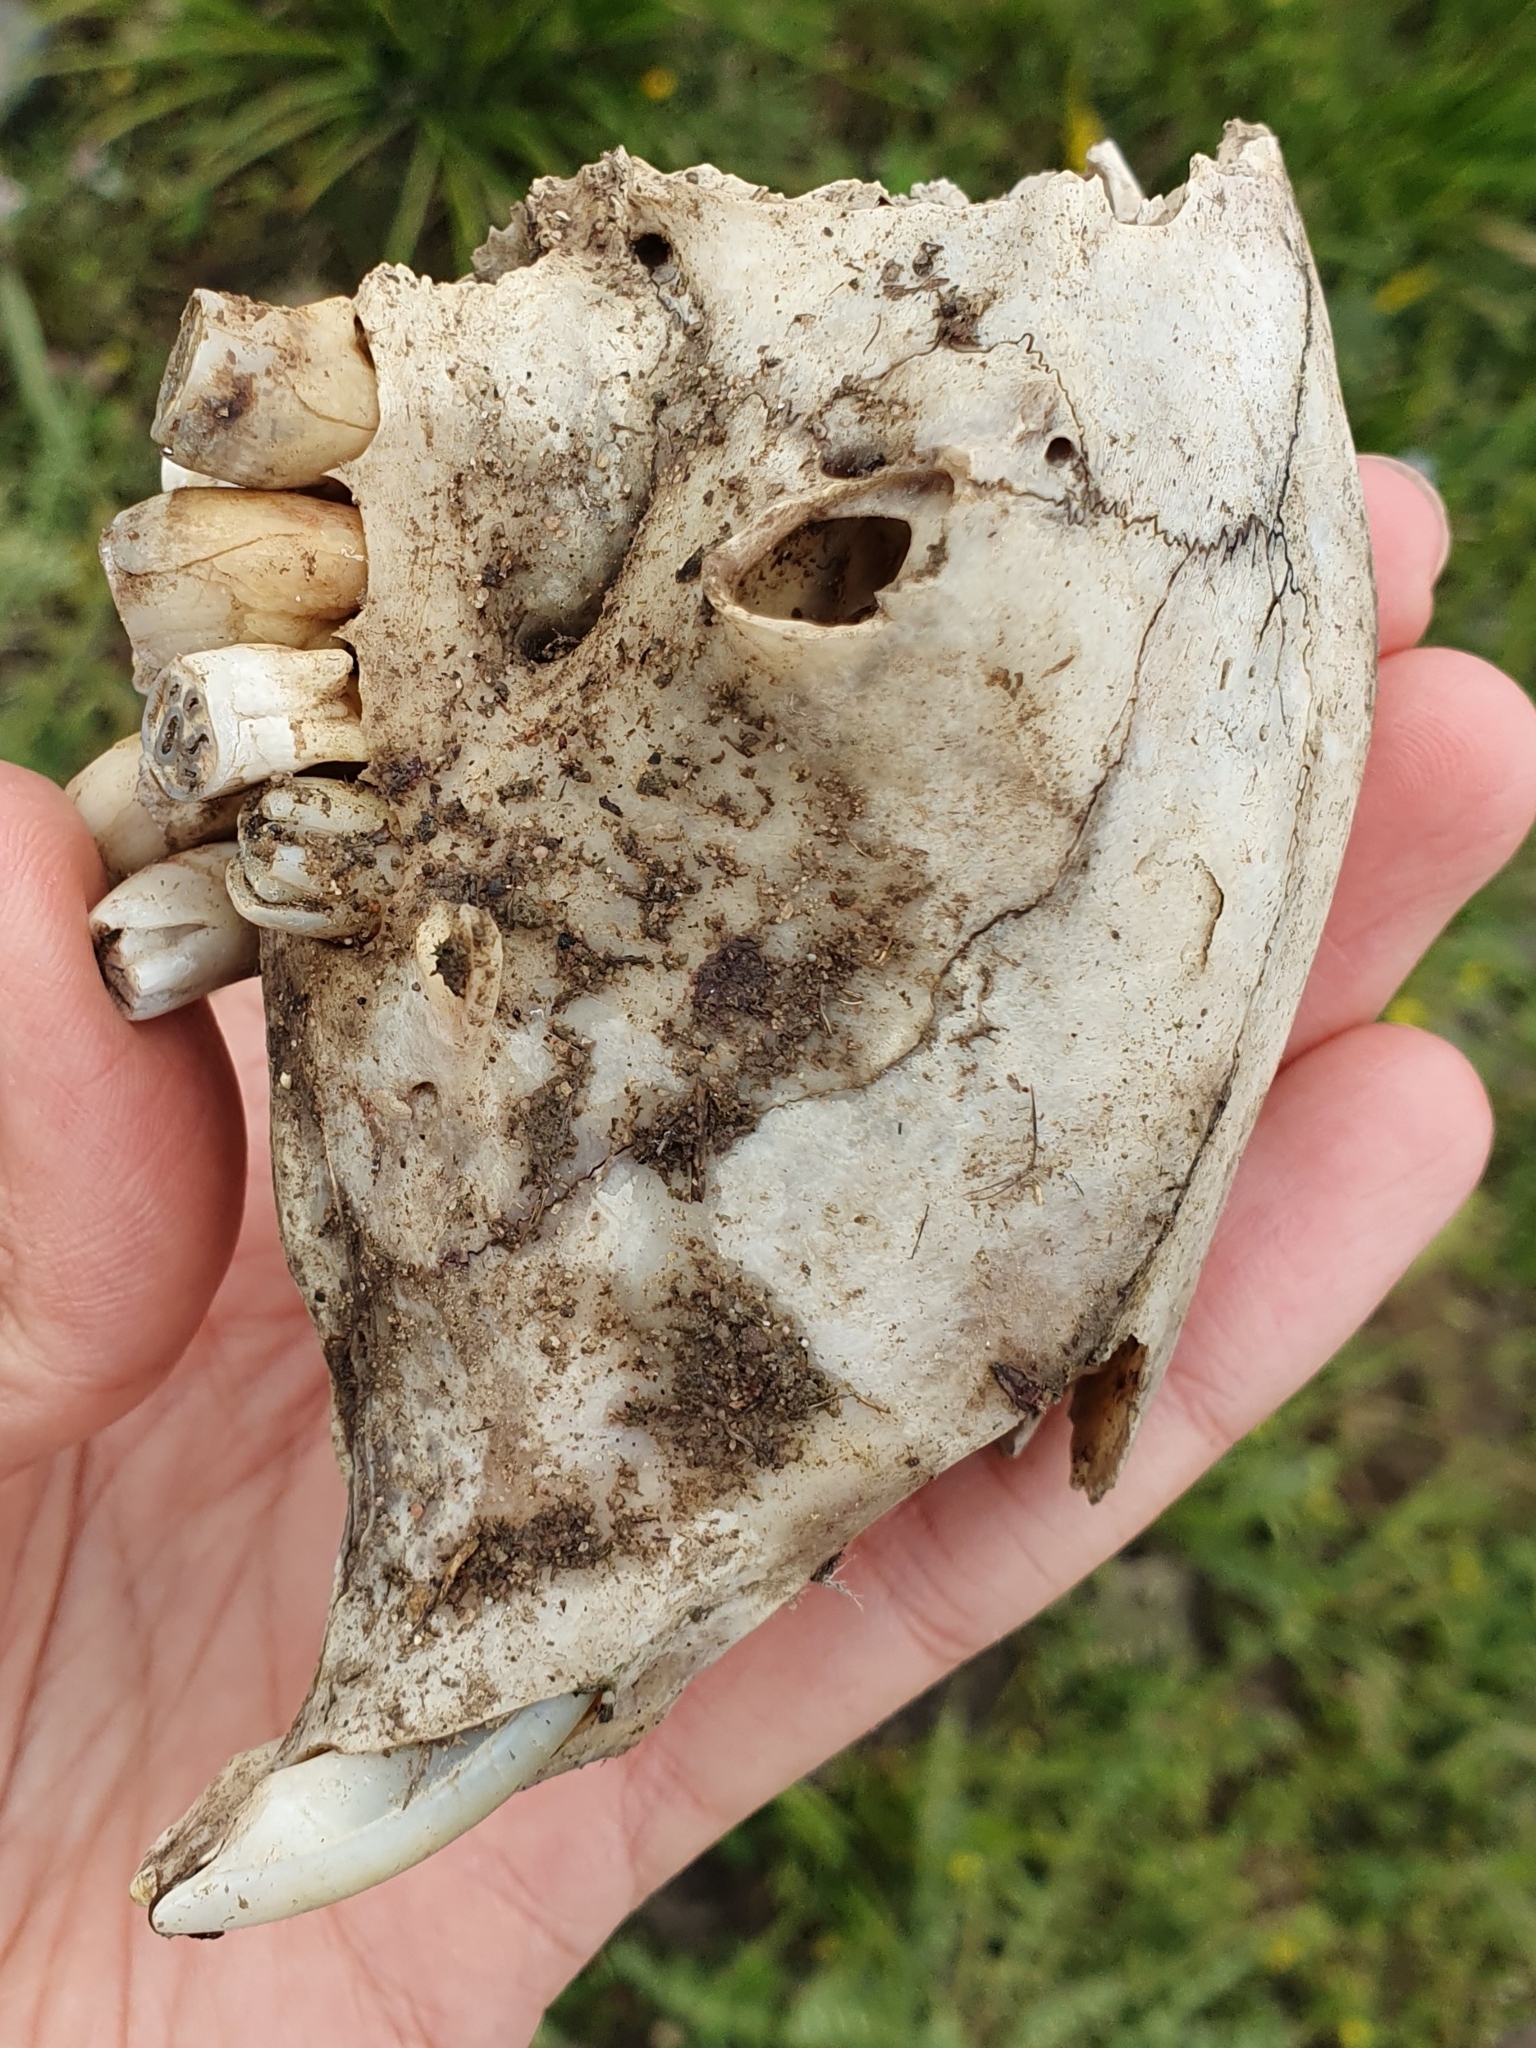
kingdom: Animalia
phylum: Chordata
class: Mammalia
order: Rodentia
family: Hystricidae
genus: Hystrix
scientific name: Hystrix cristata
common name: Crested porcupine
